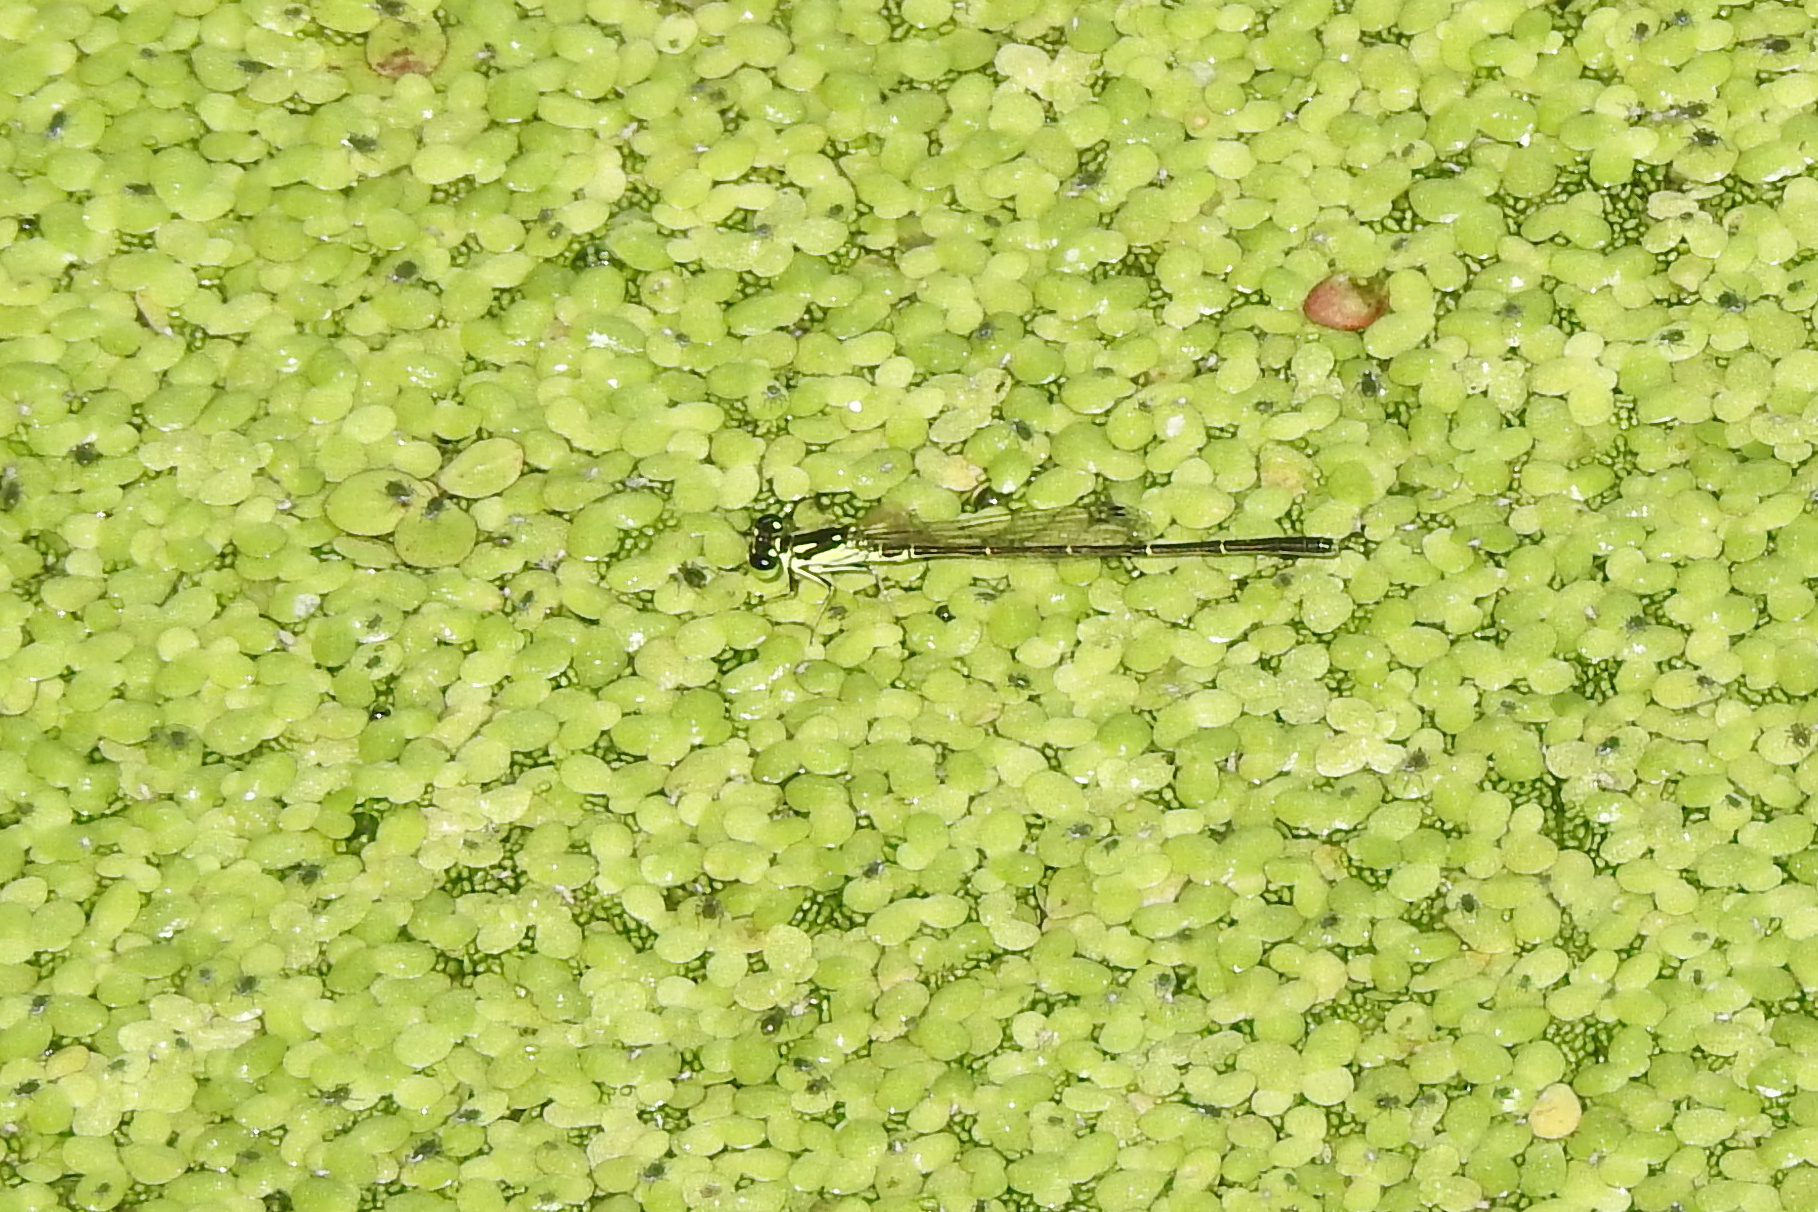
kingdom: Animalia
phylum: Arthropoda
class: Insecta
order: Odonata
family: Coenagrionidae
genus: Ischnura
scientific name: Ischnura posita
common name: Fragile forktail
